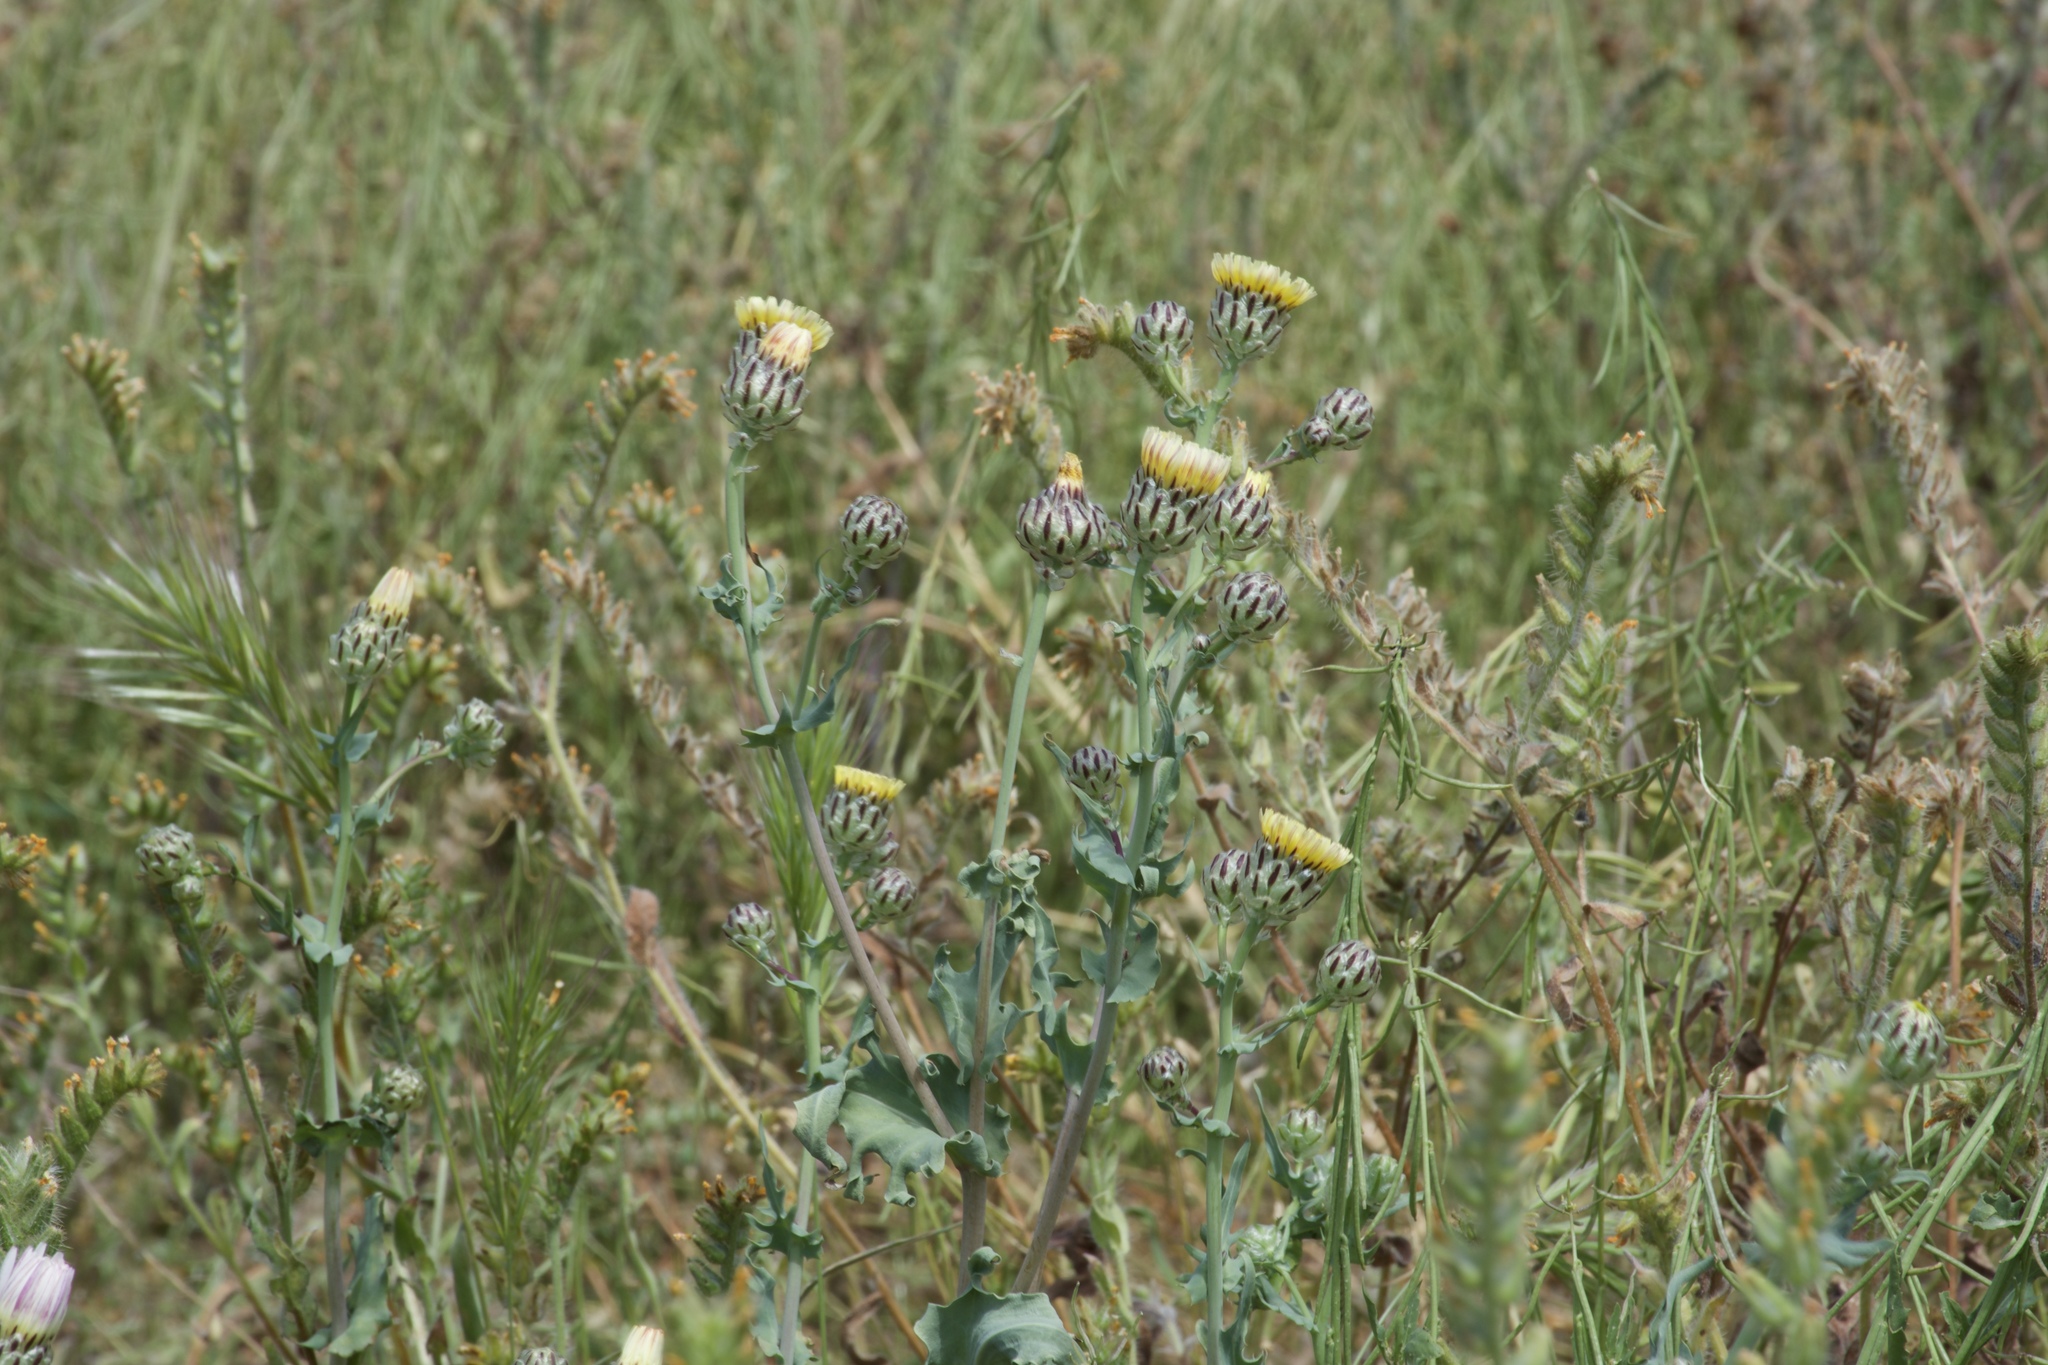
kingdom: Plantae
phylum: Tracheophyta
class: Magnoliopsida
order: Asterales
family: Asteraceae
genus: Malacothrix
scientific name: Malacothrix coulteri
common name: Snake's-head
